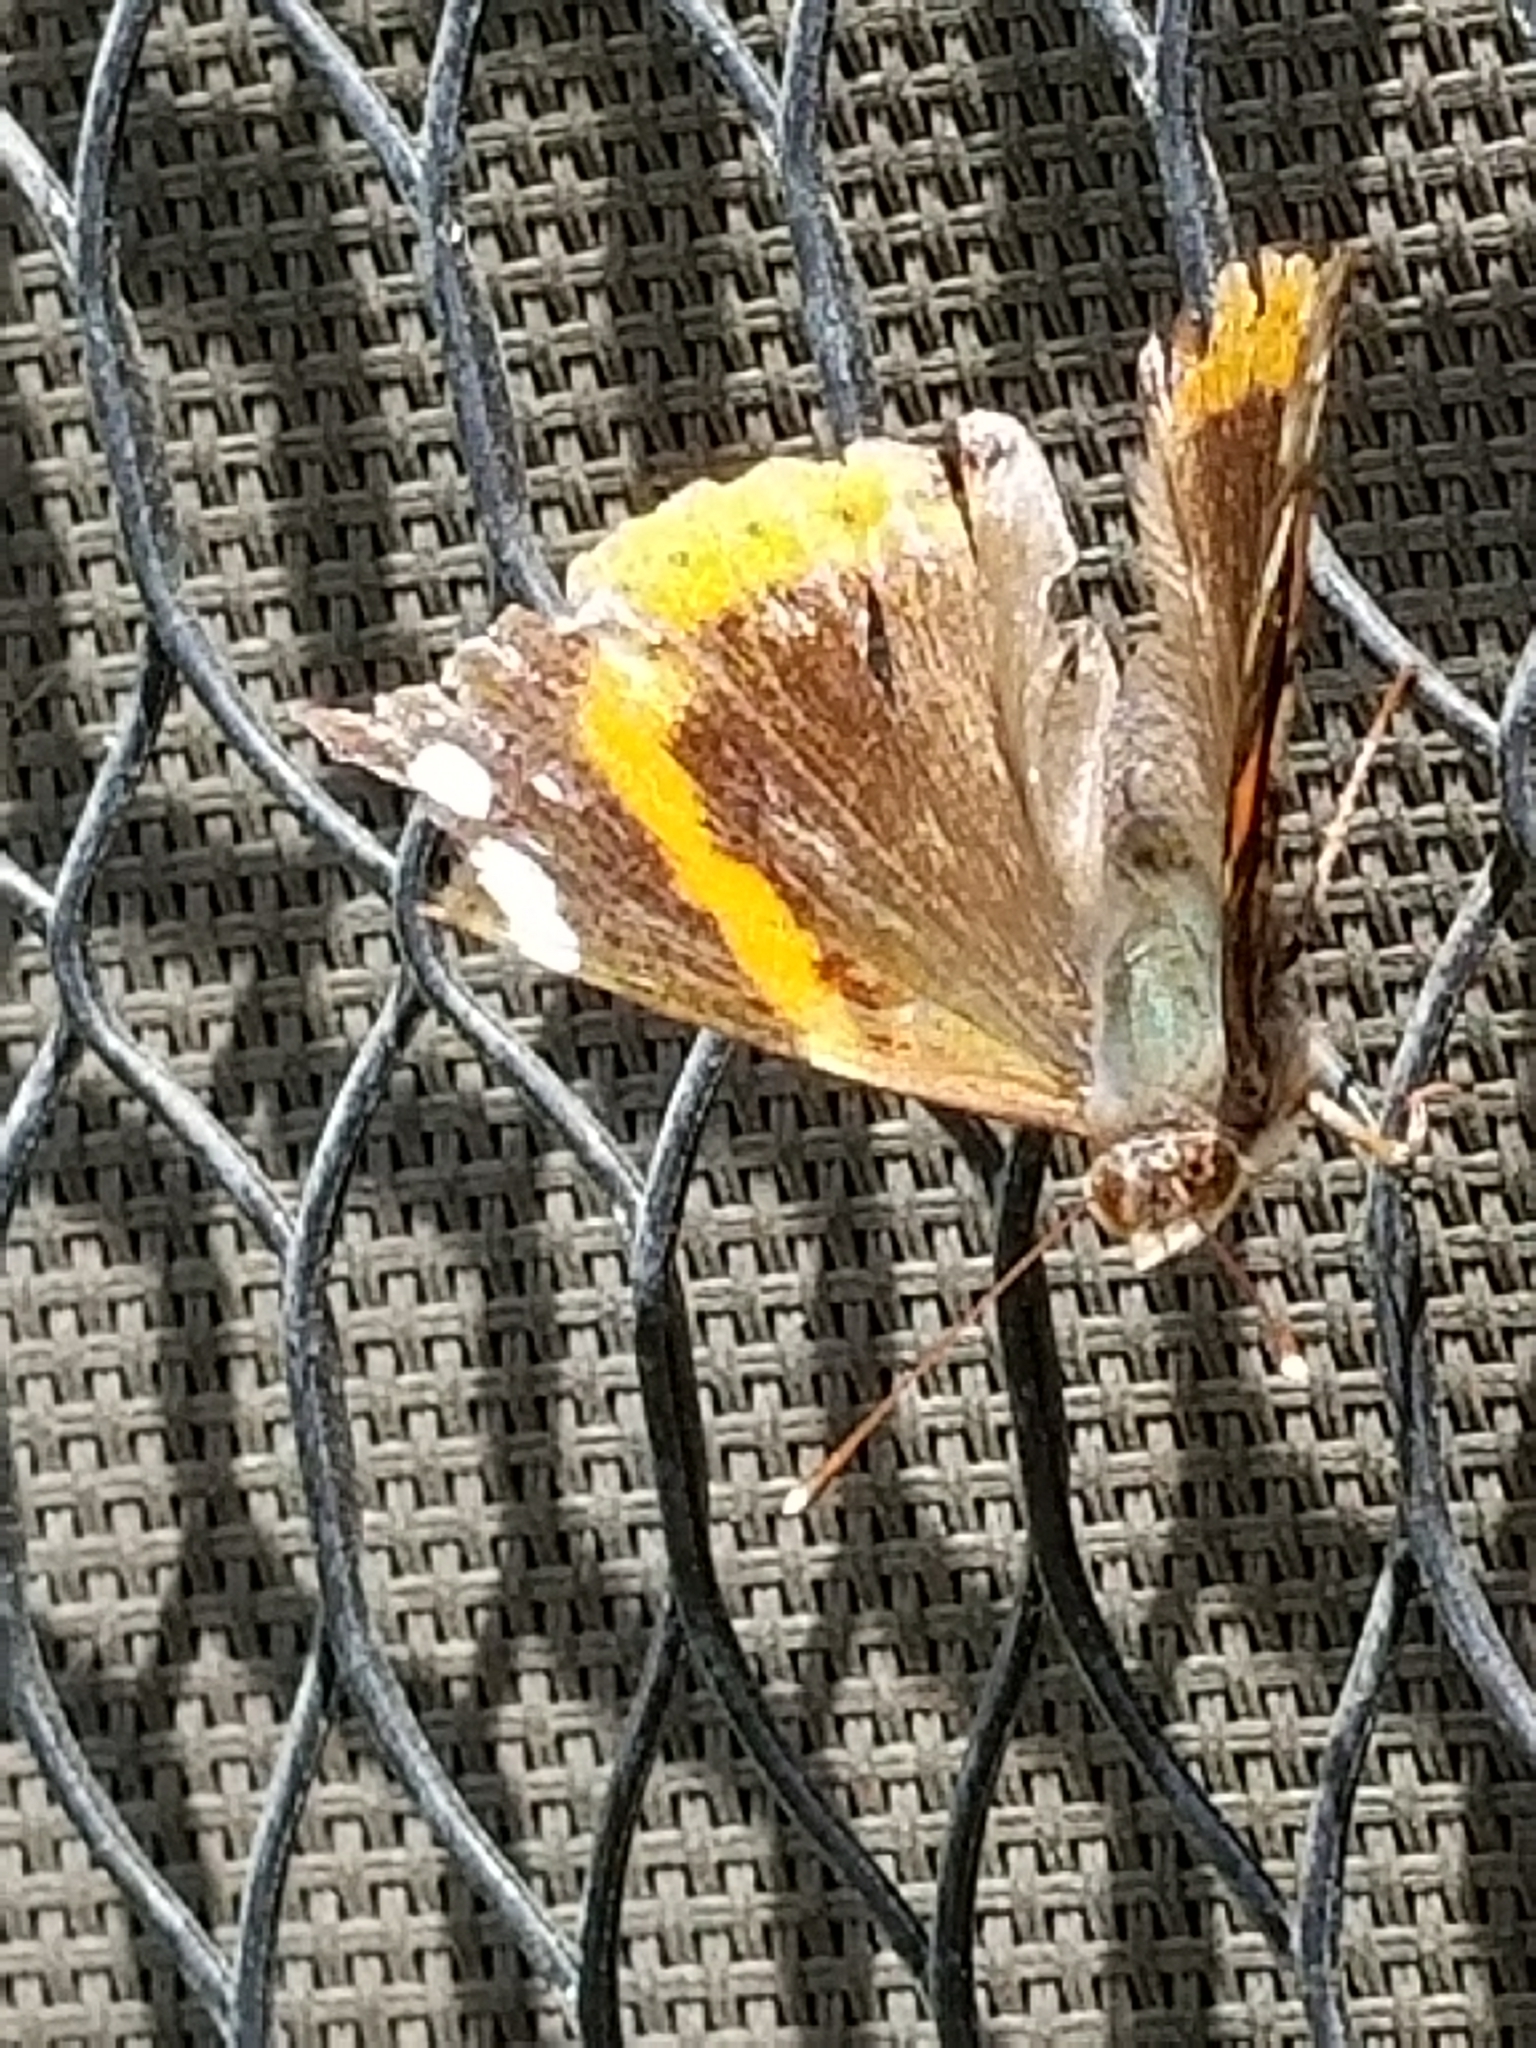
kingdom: Animalia
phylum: Arthropoda
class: Insecta
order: Lepidoptera
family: Nymphalidae
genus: Vanessa
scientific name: Vanessa atalanta
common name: Red admiral
